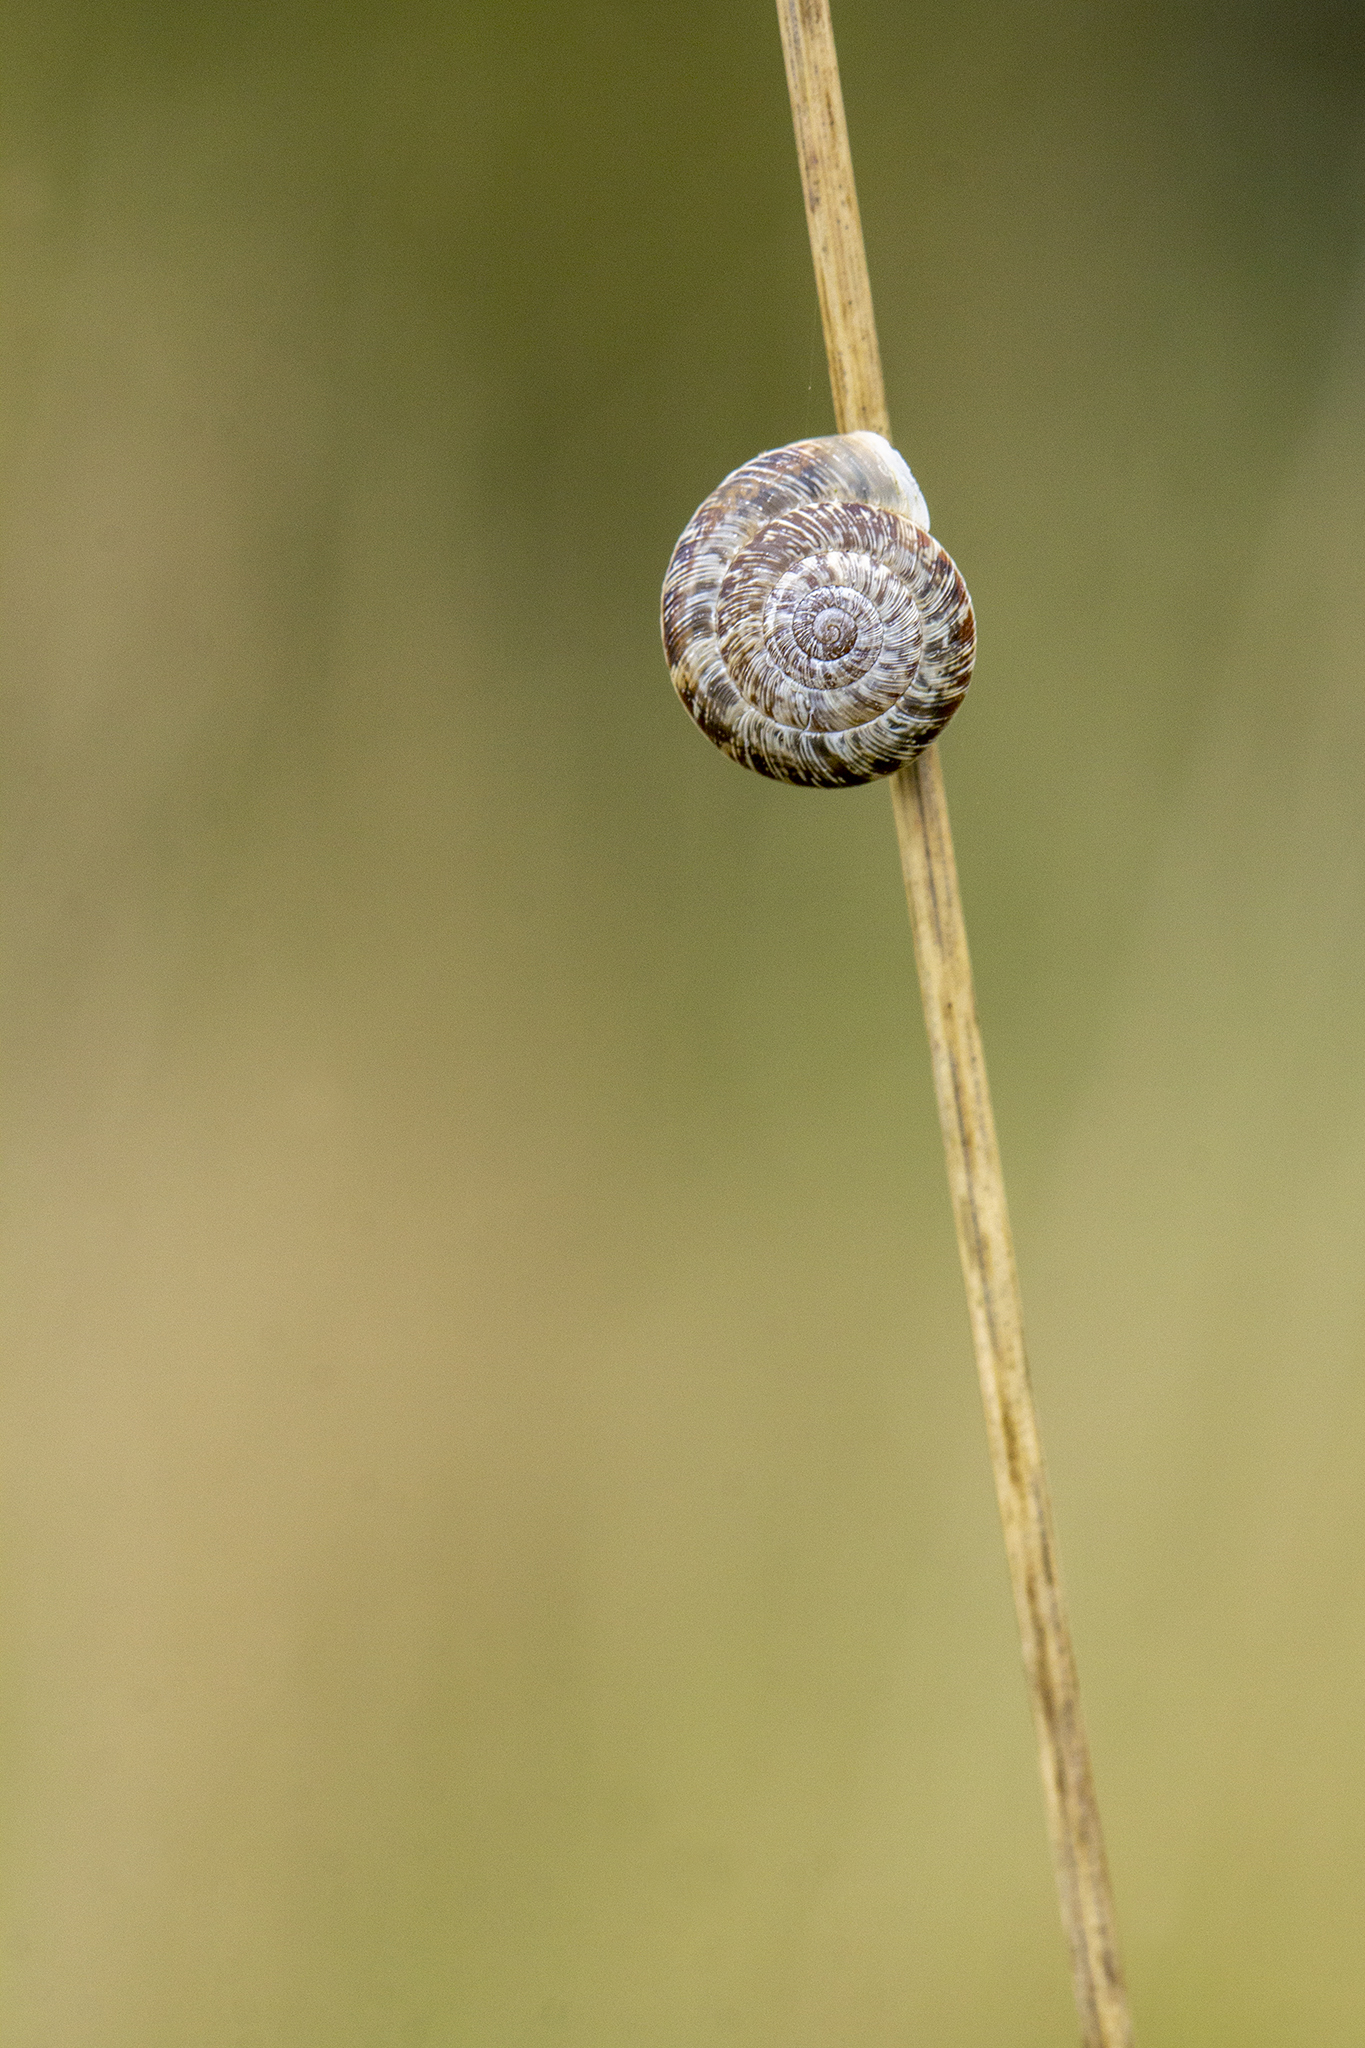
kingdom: Animalia
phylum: Mollusca
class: Gastropoda
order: Stylommatophora
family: Geomitridae
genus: Xeroplexa
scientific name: Xeroplexa intersecta
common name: Wrinkled snail
